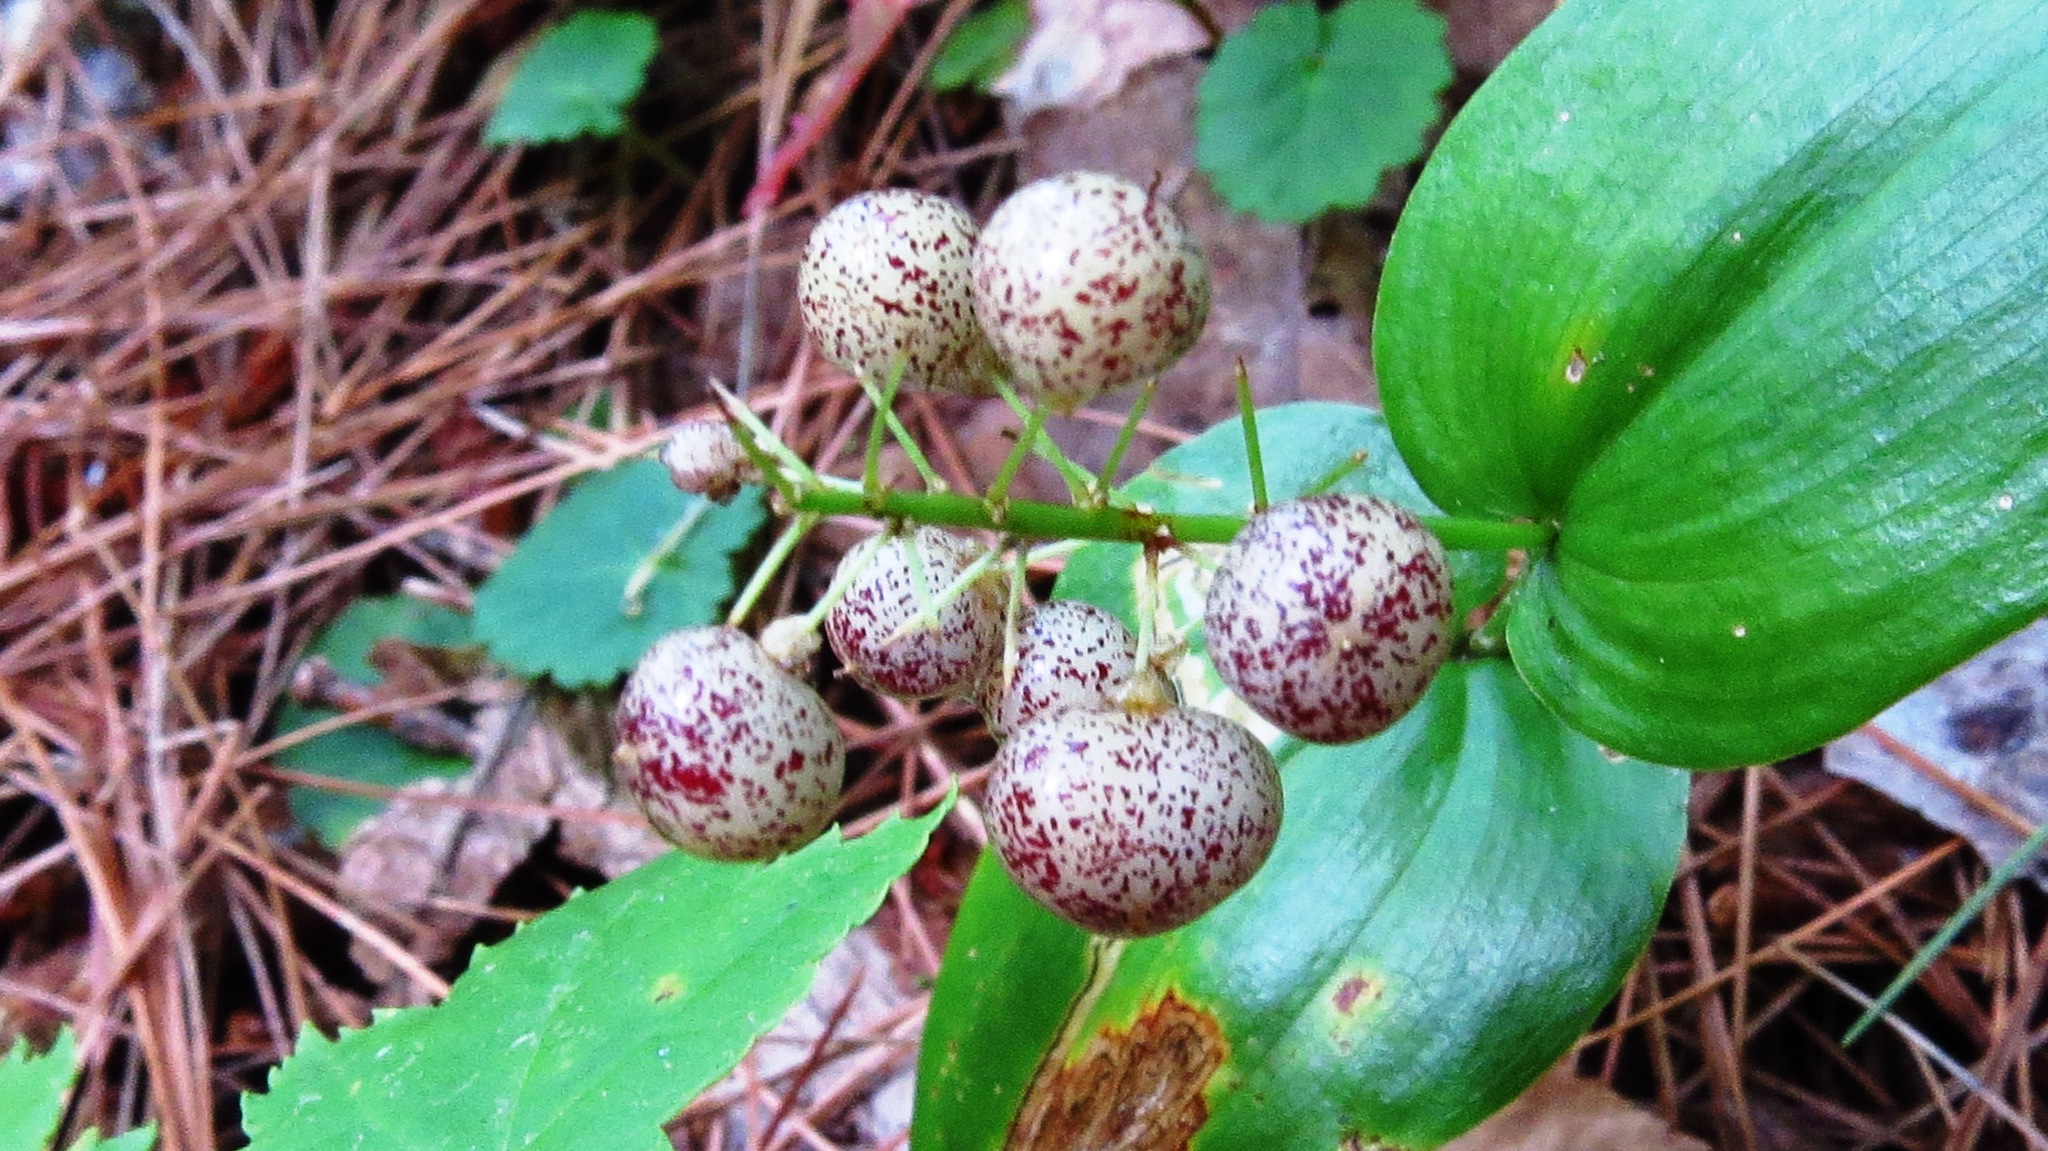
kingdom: Plantae
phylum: Tracheophyta
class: Liliopsida
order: Asparagales
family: Asparagaceae
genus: Maianthemum
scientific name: Maianthemum canadense
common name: False lily-of-the-valley
